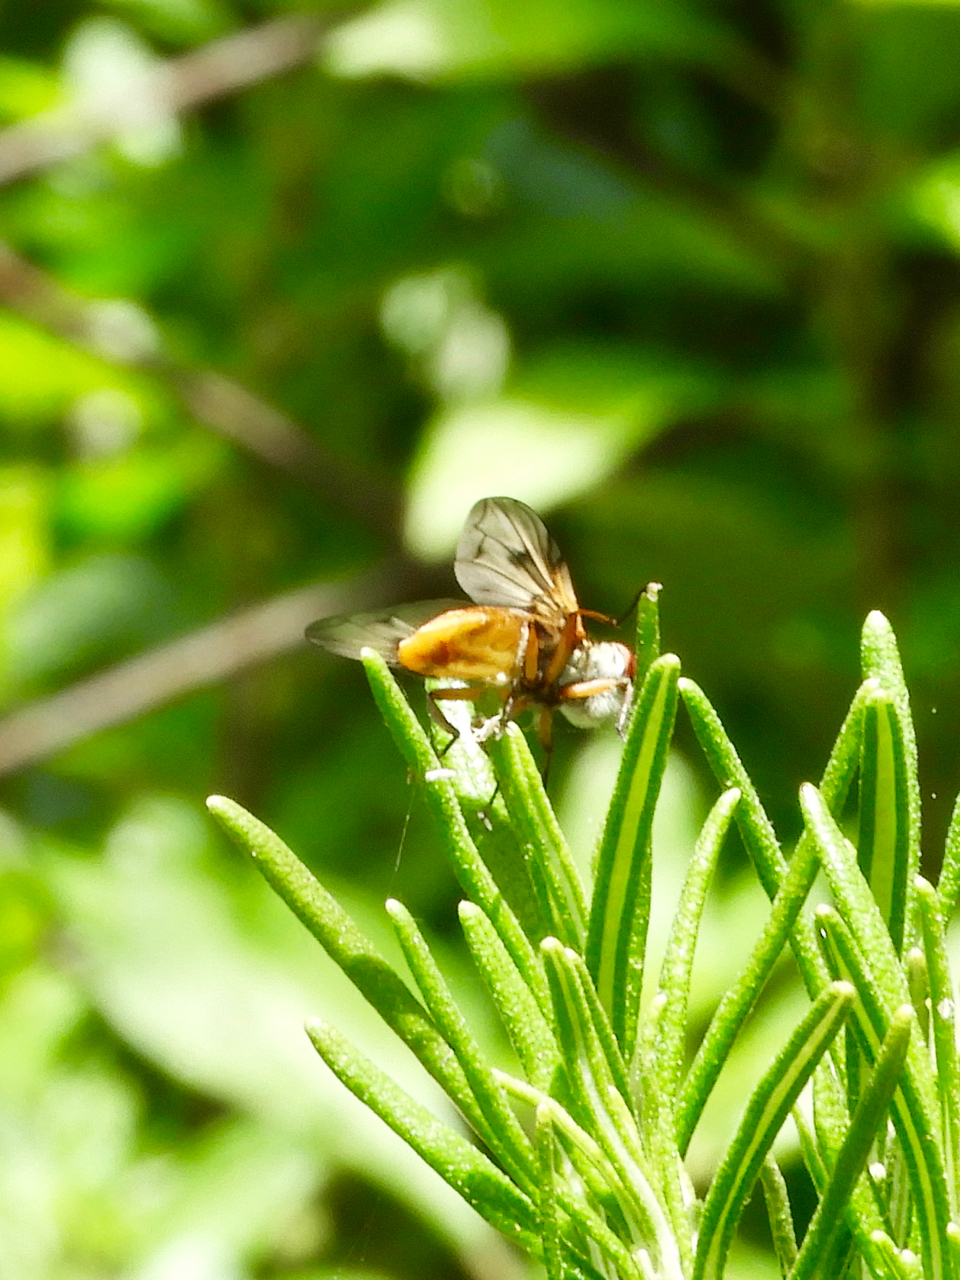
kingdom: Animalia
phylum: Arthropoda
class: Insecta
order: Diptera
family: Tachinidae
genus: Ectophasia
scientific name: Ectophasia
